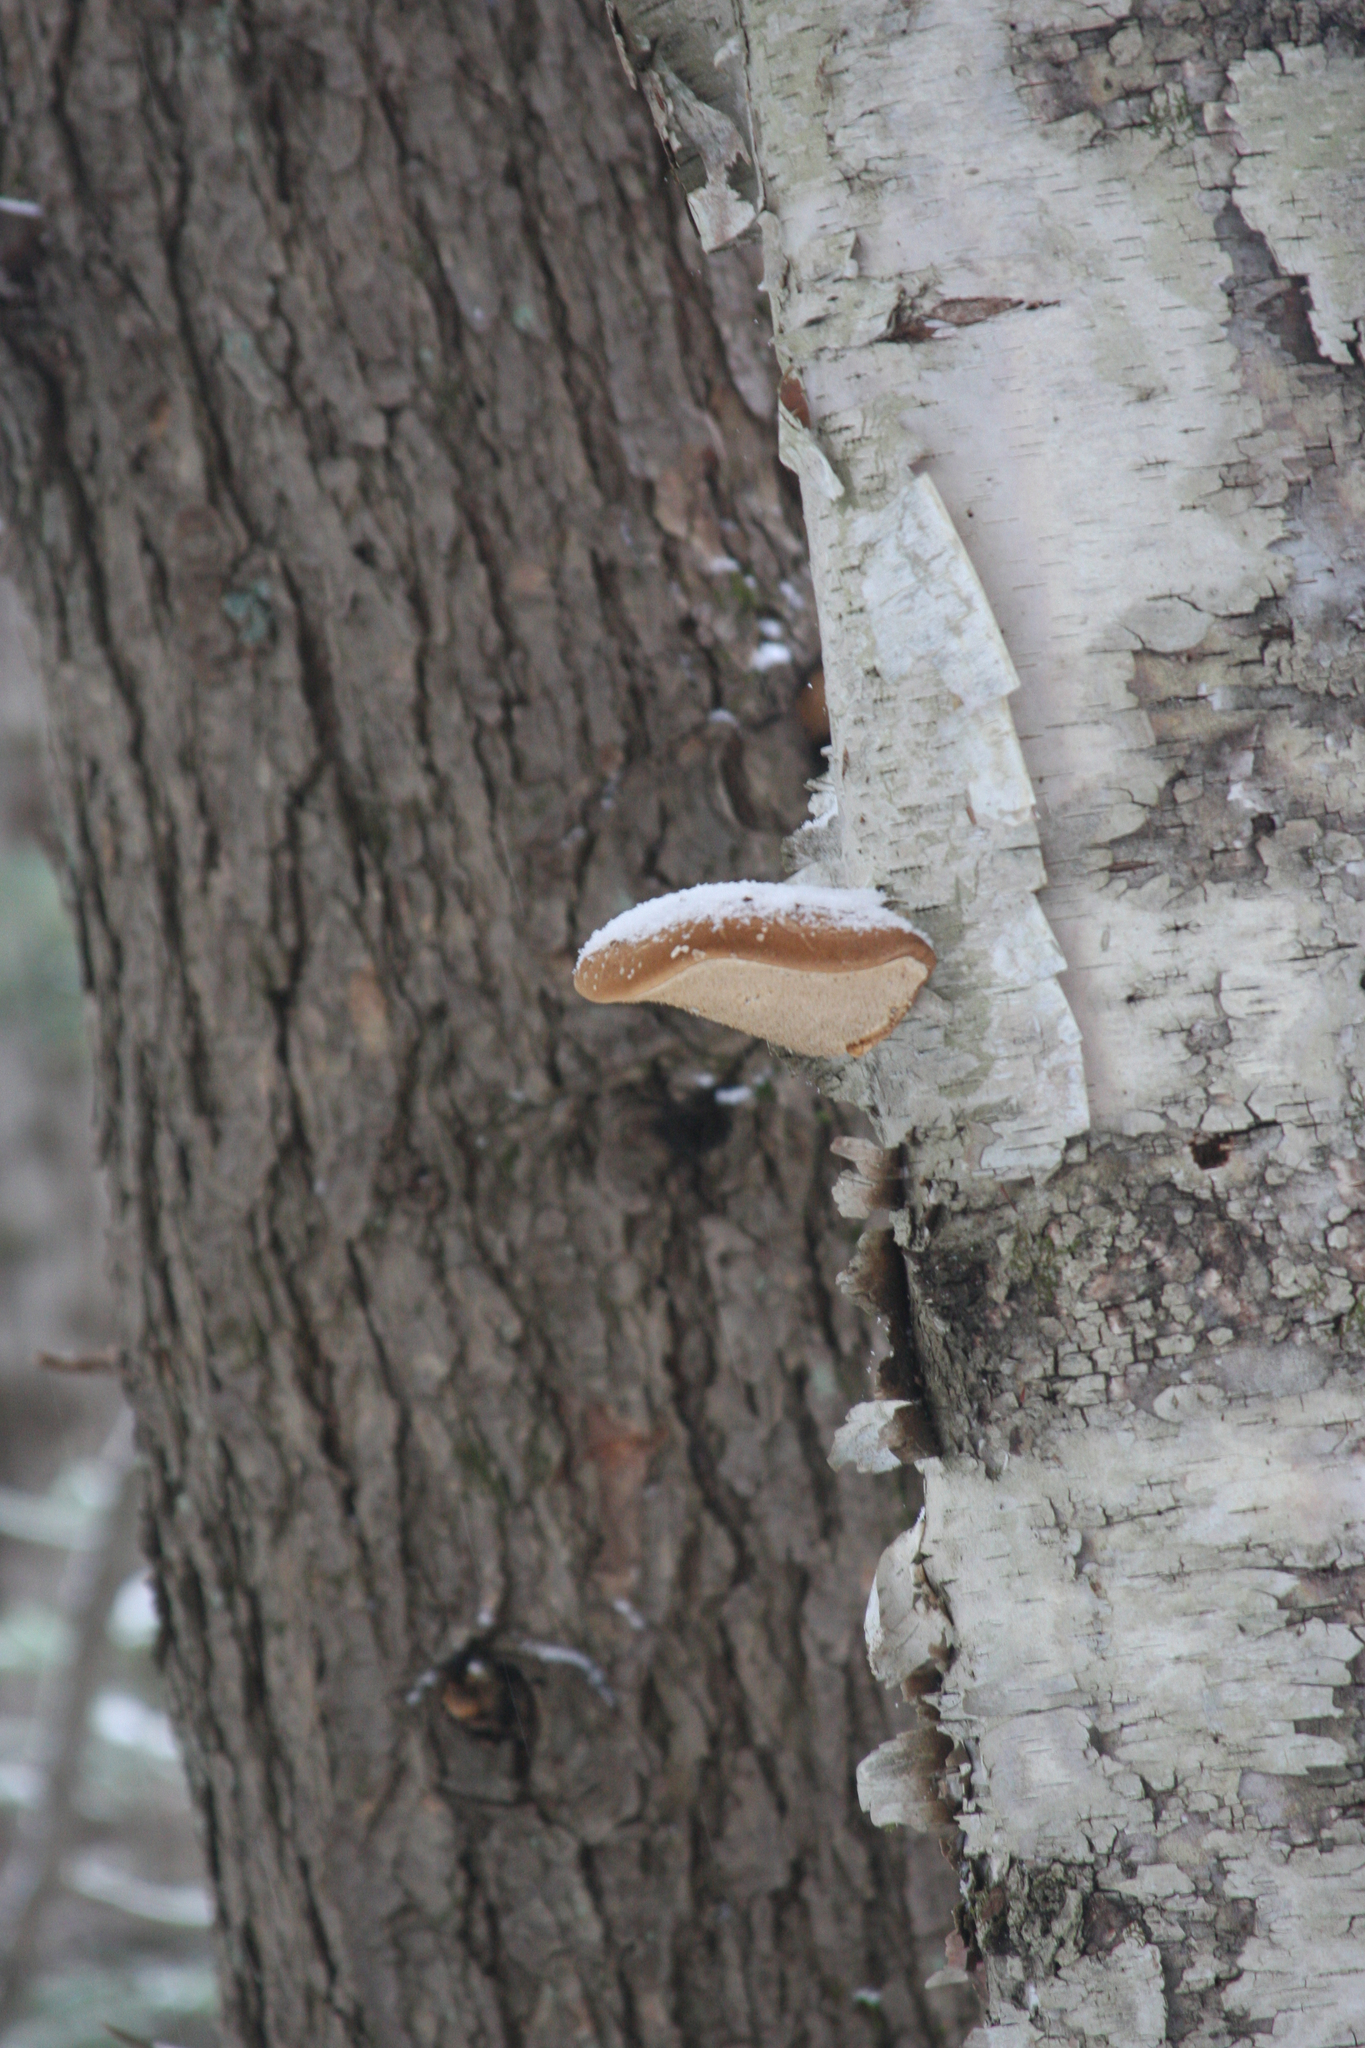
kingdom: Fungi
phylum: Basidiomycota
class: Agaricomycetes
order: Polyporales
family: Fomitopsidaceae
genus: Fomitopsis
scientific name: Fomitopsis betulina
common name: Birch polypore
